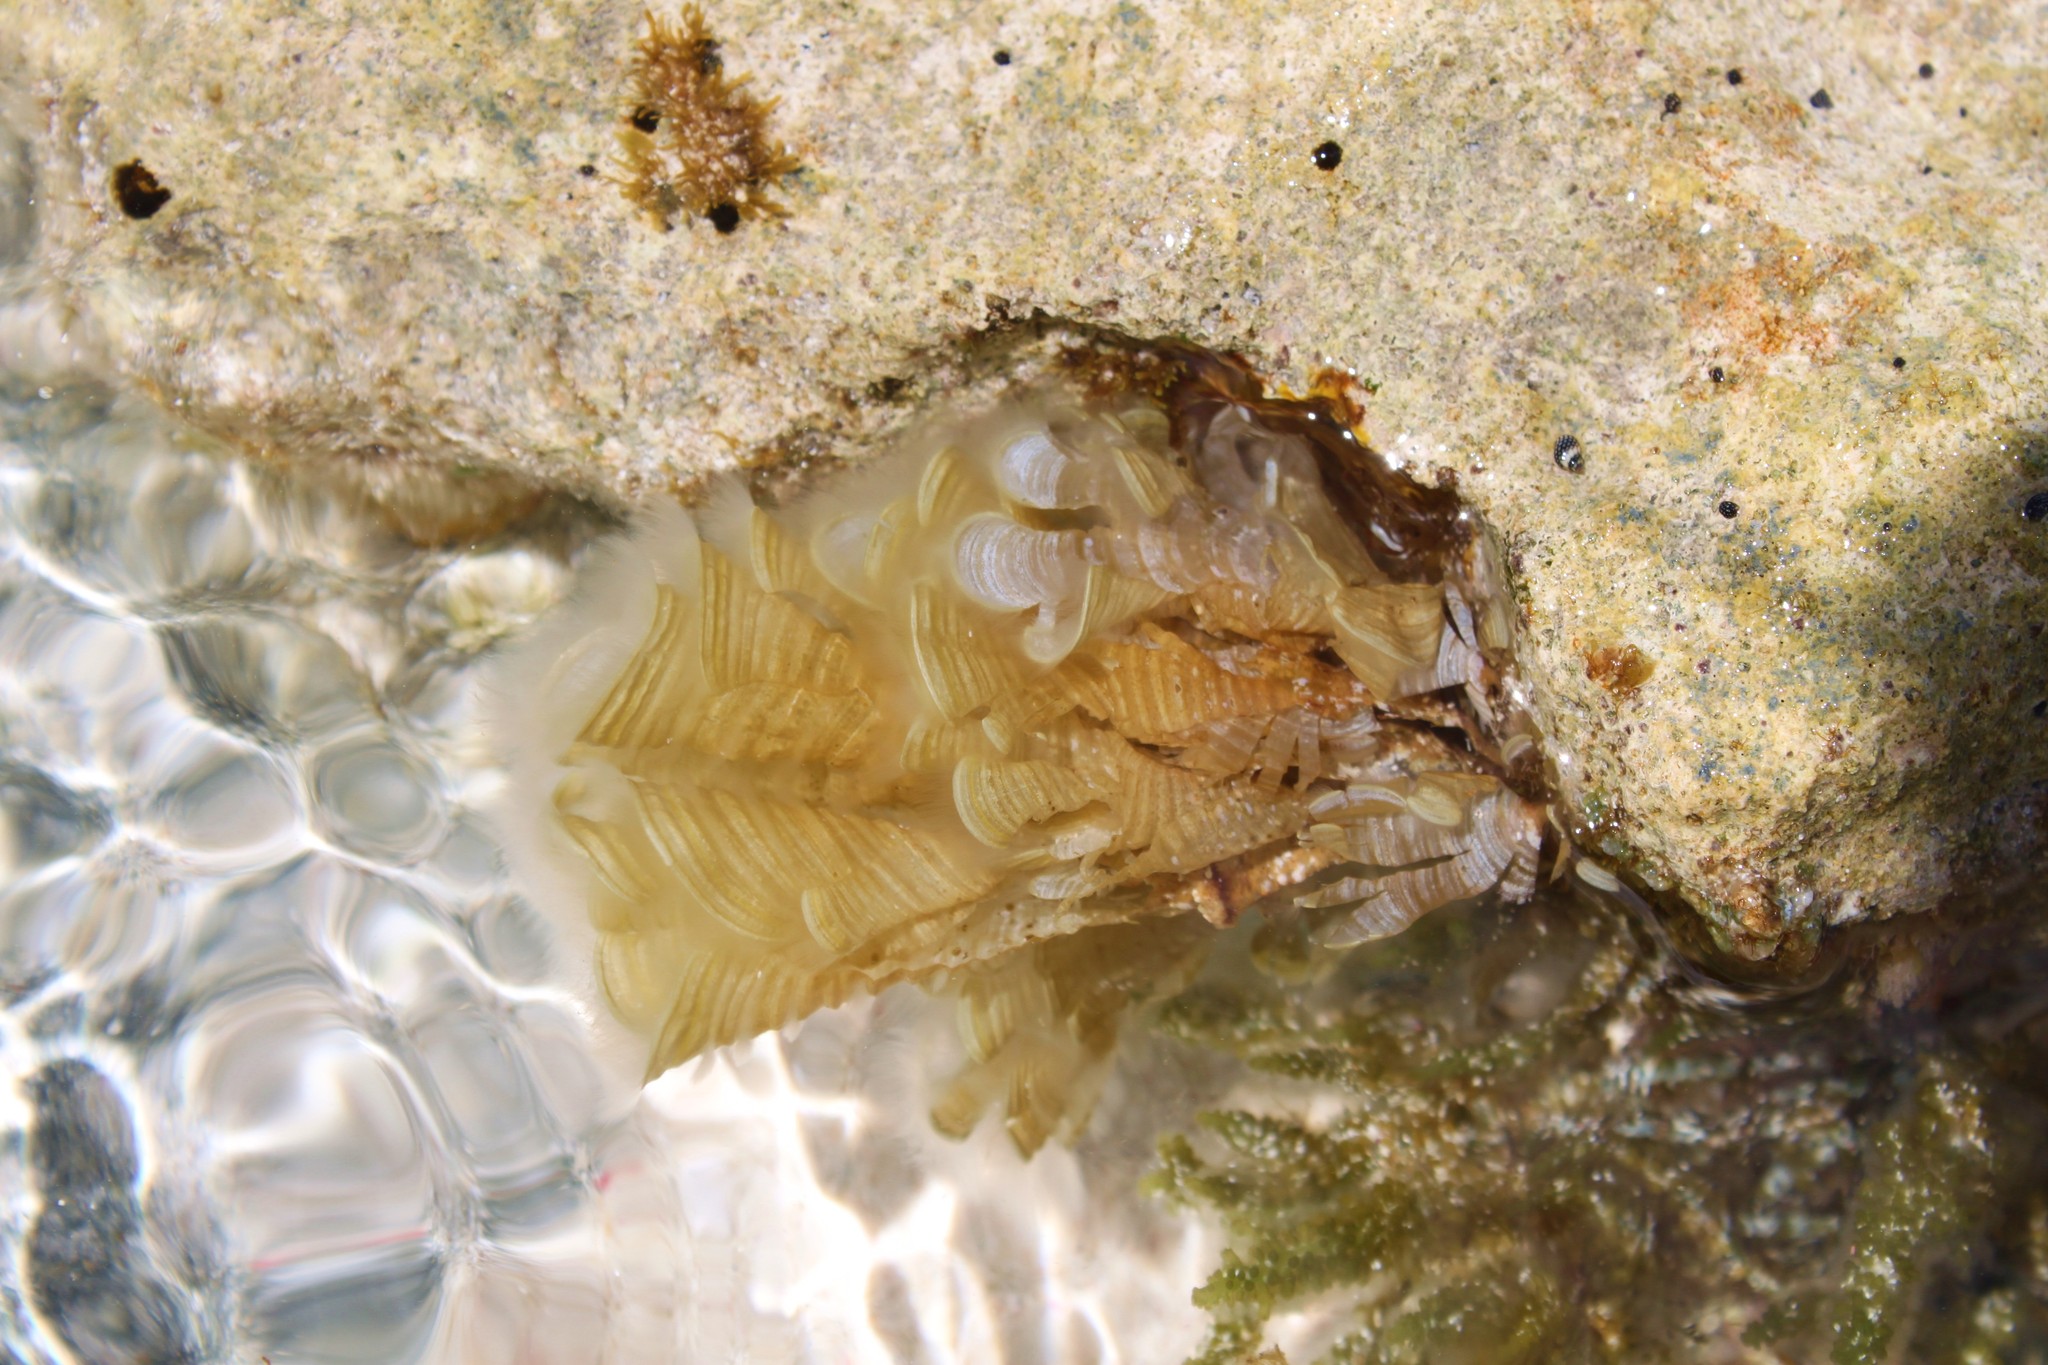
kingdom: Chromista
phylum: Ochrophyta
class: Phaeophyceae
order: Dictyotales
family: Dictyotaceae
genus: Padina
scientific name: Padina sanctae-crucis
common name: White scroll algae
